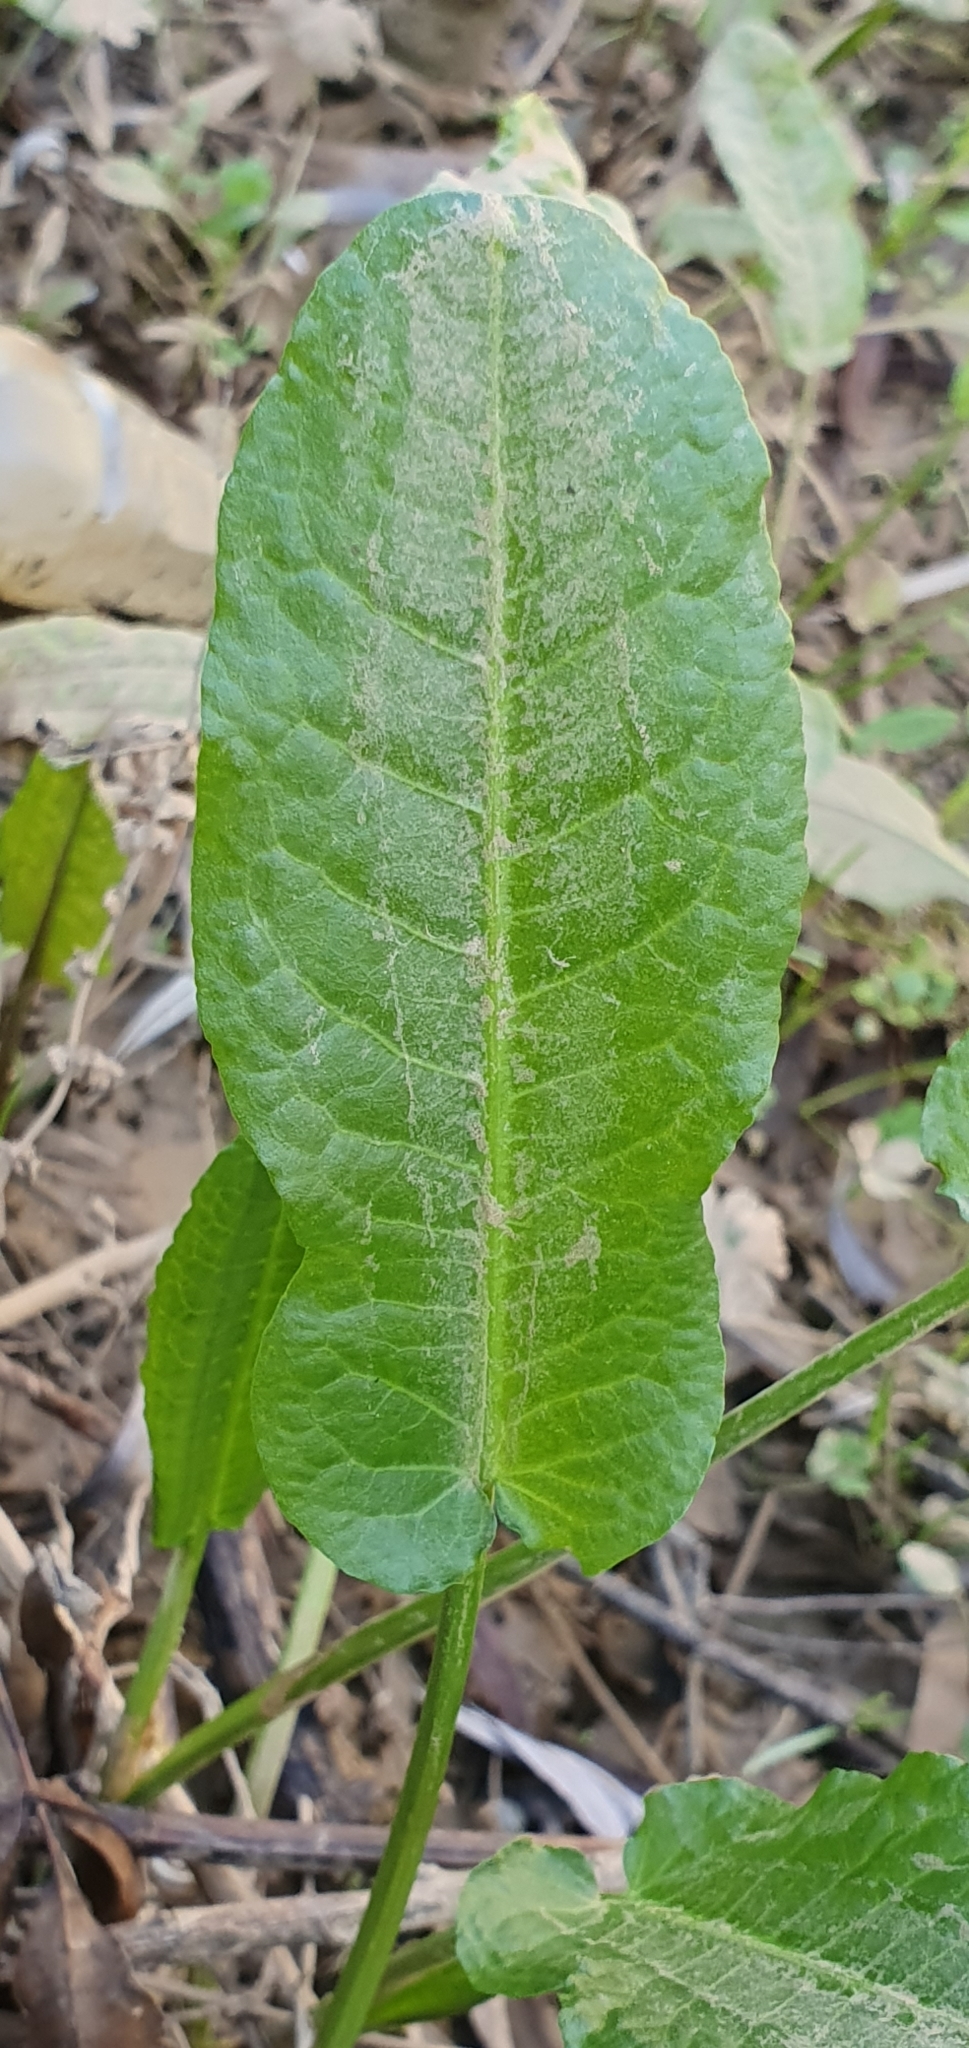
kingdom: Plantae
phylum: Tracheophyta
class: Magnoliopsida
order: Caryophyllales
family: Polygonaceae
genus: Rumex
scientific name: Rumex pulcher
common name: Fiddle dock
